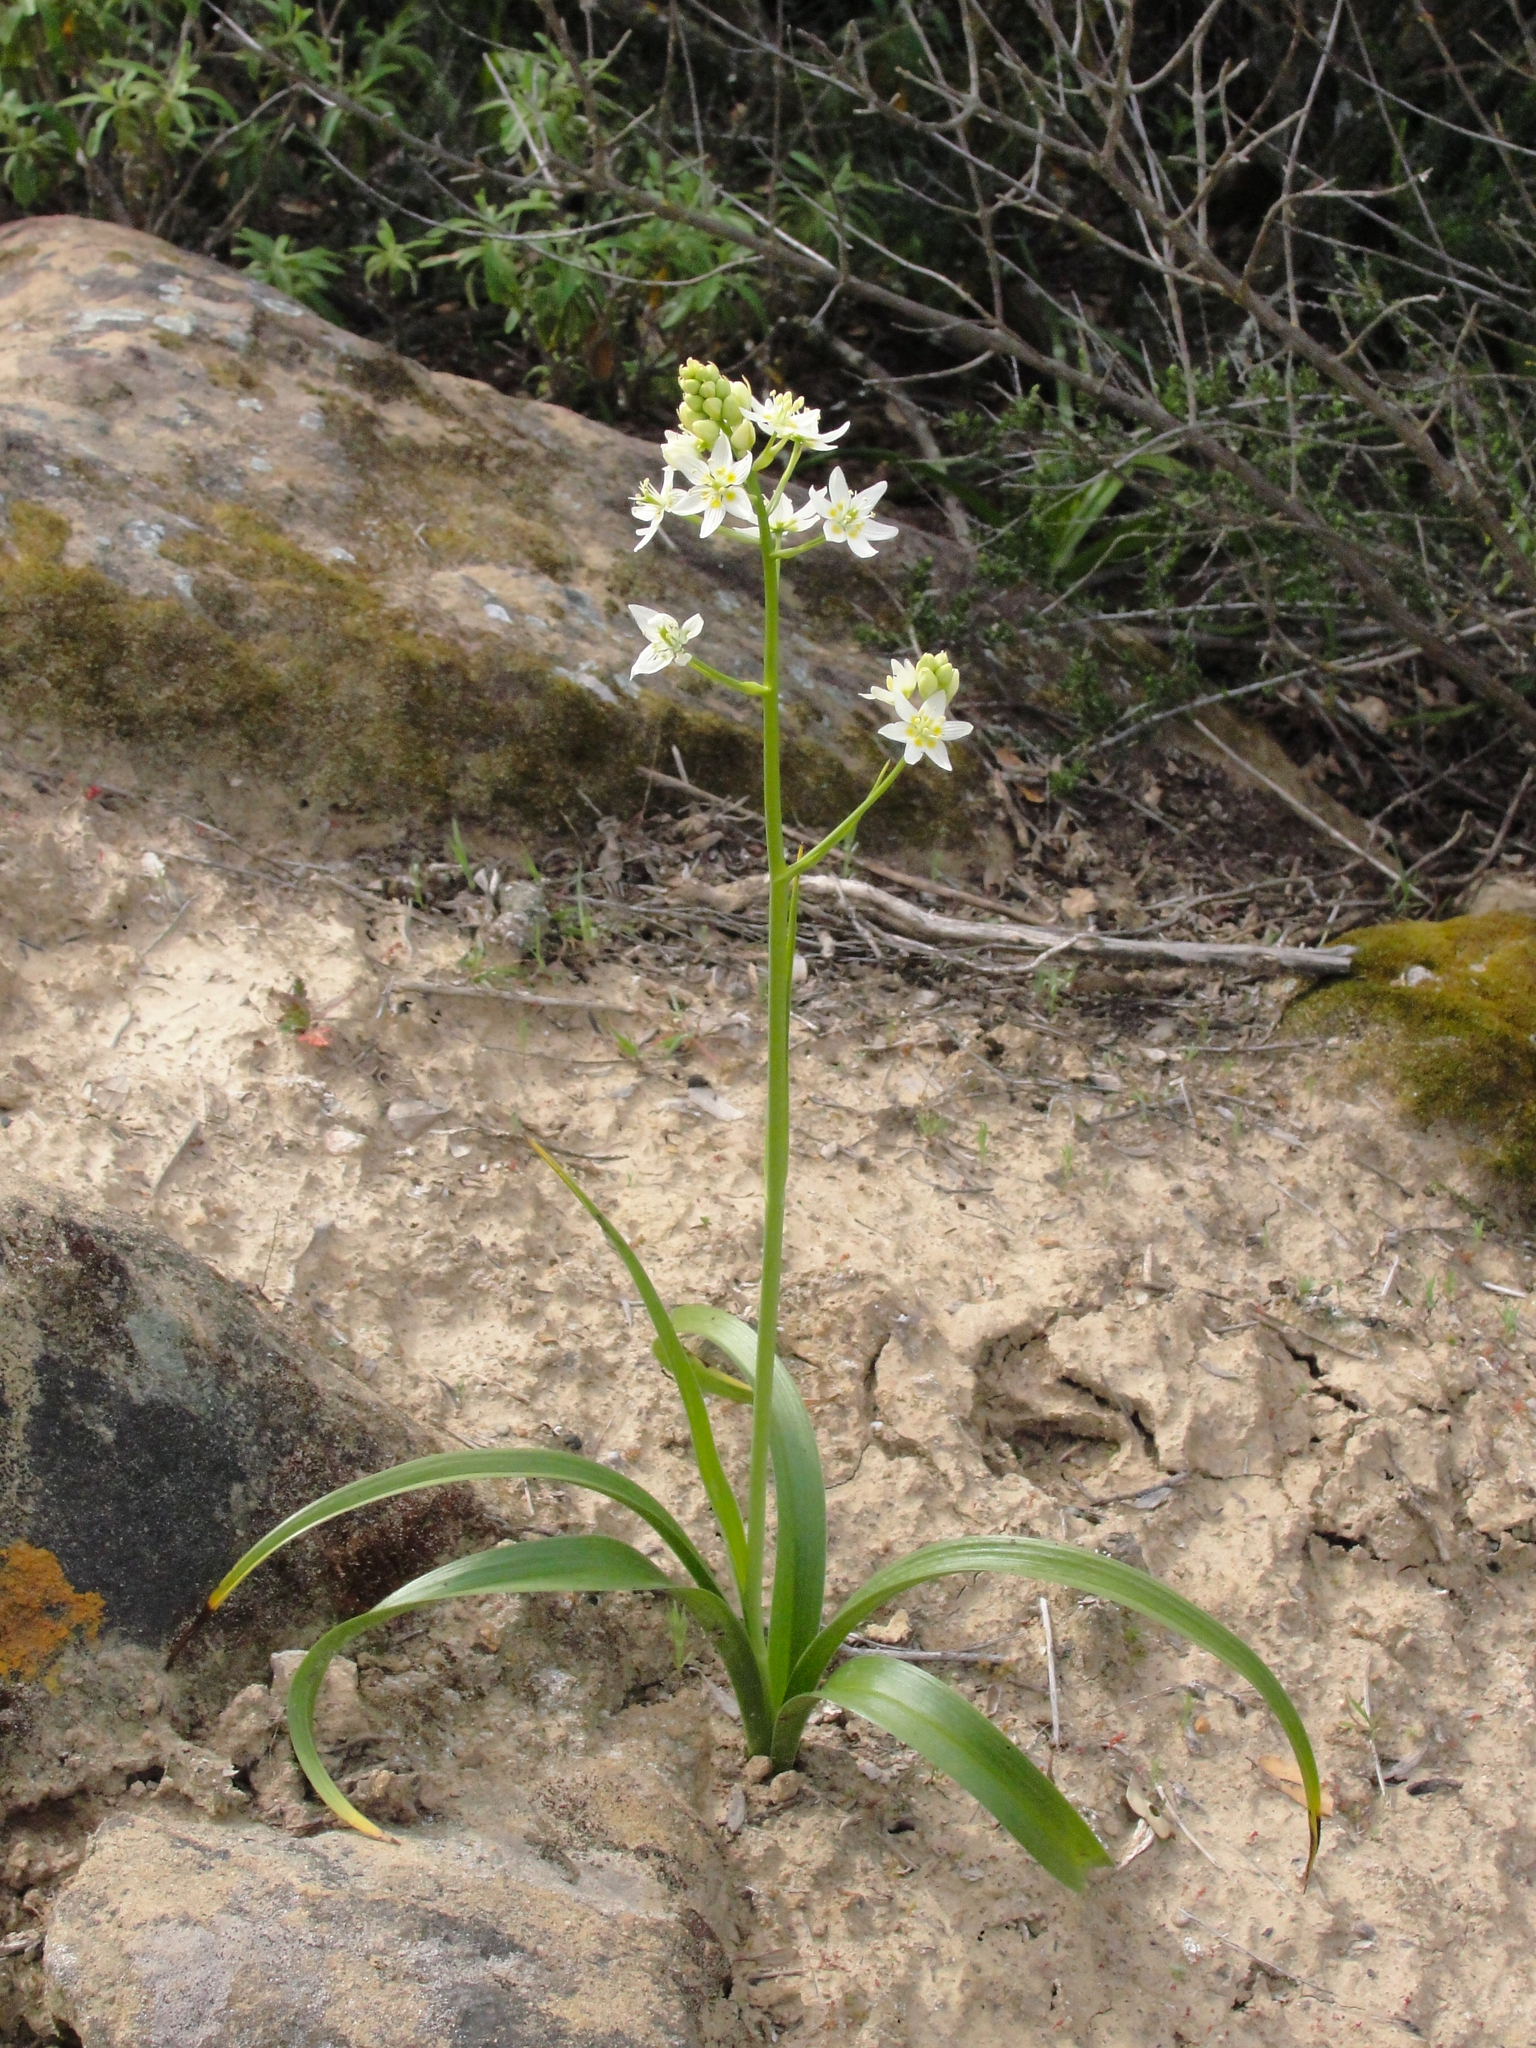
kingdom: Plantae
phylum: Tracheophyta
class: Liliopsida
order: Liliales
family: Melanthiaceae
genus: Toxicoscordion
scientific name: Toxicoscordion fremontii
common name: Fremont's death camas
